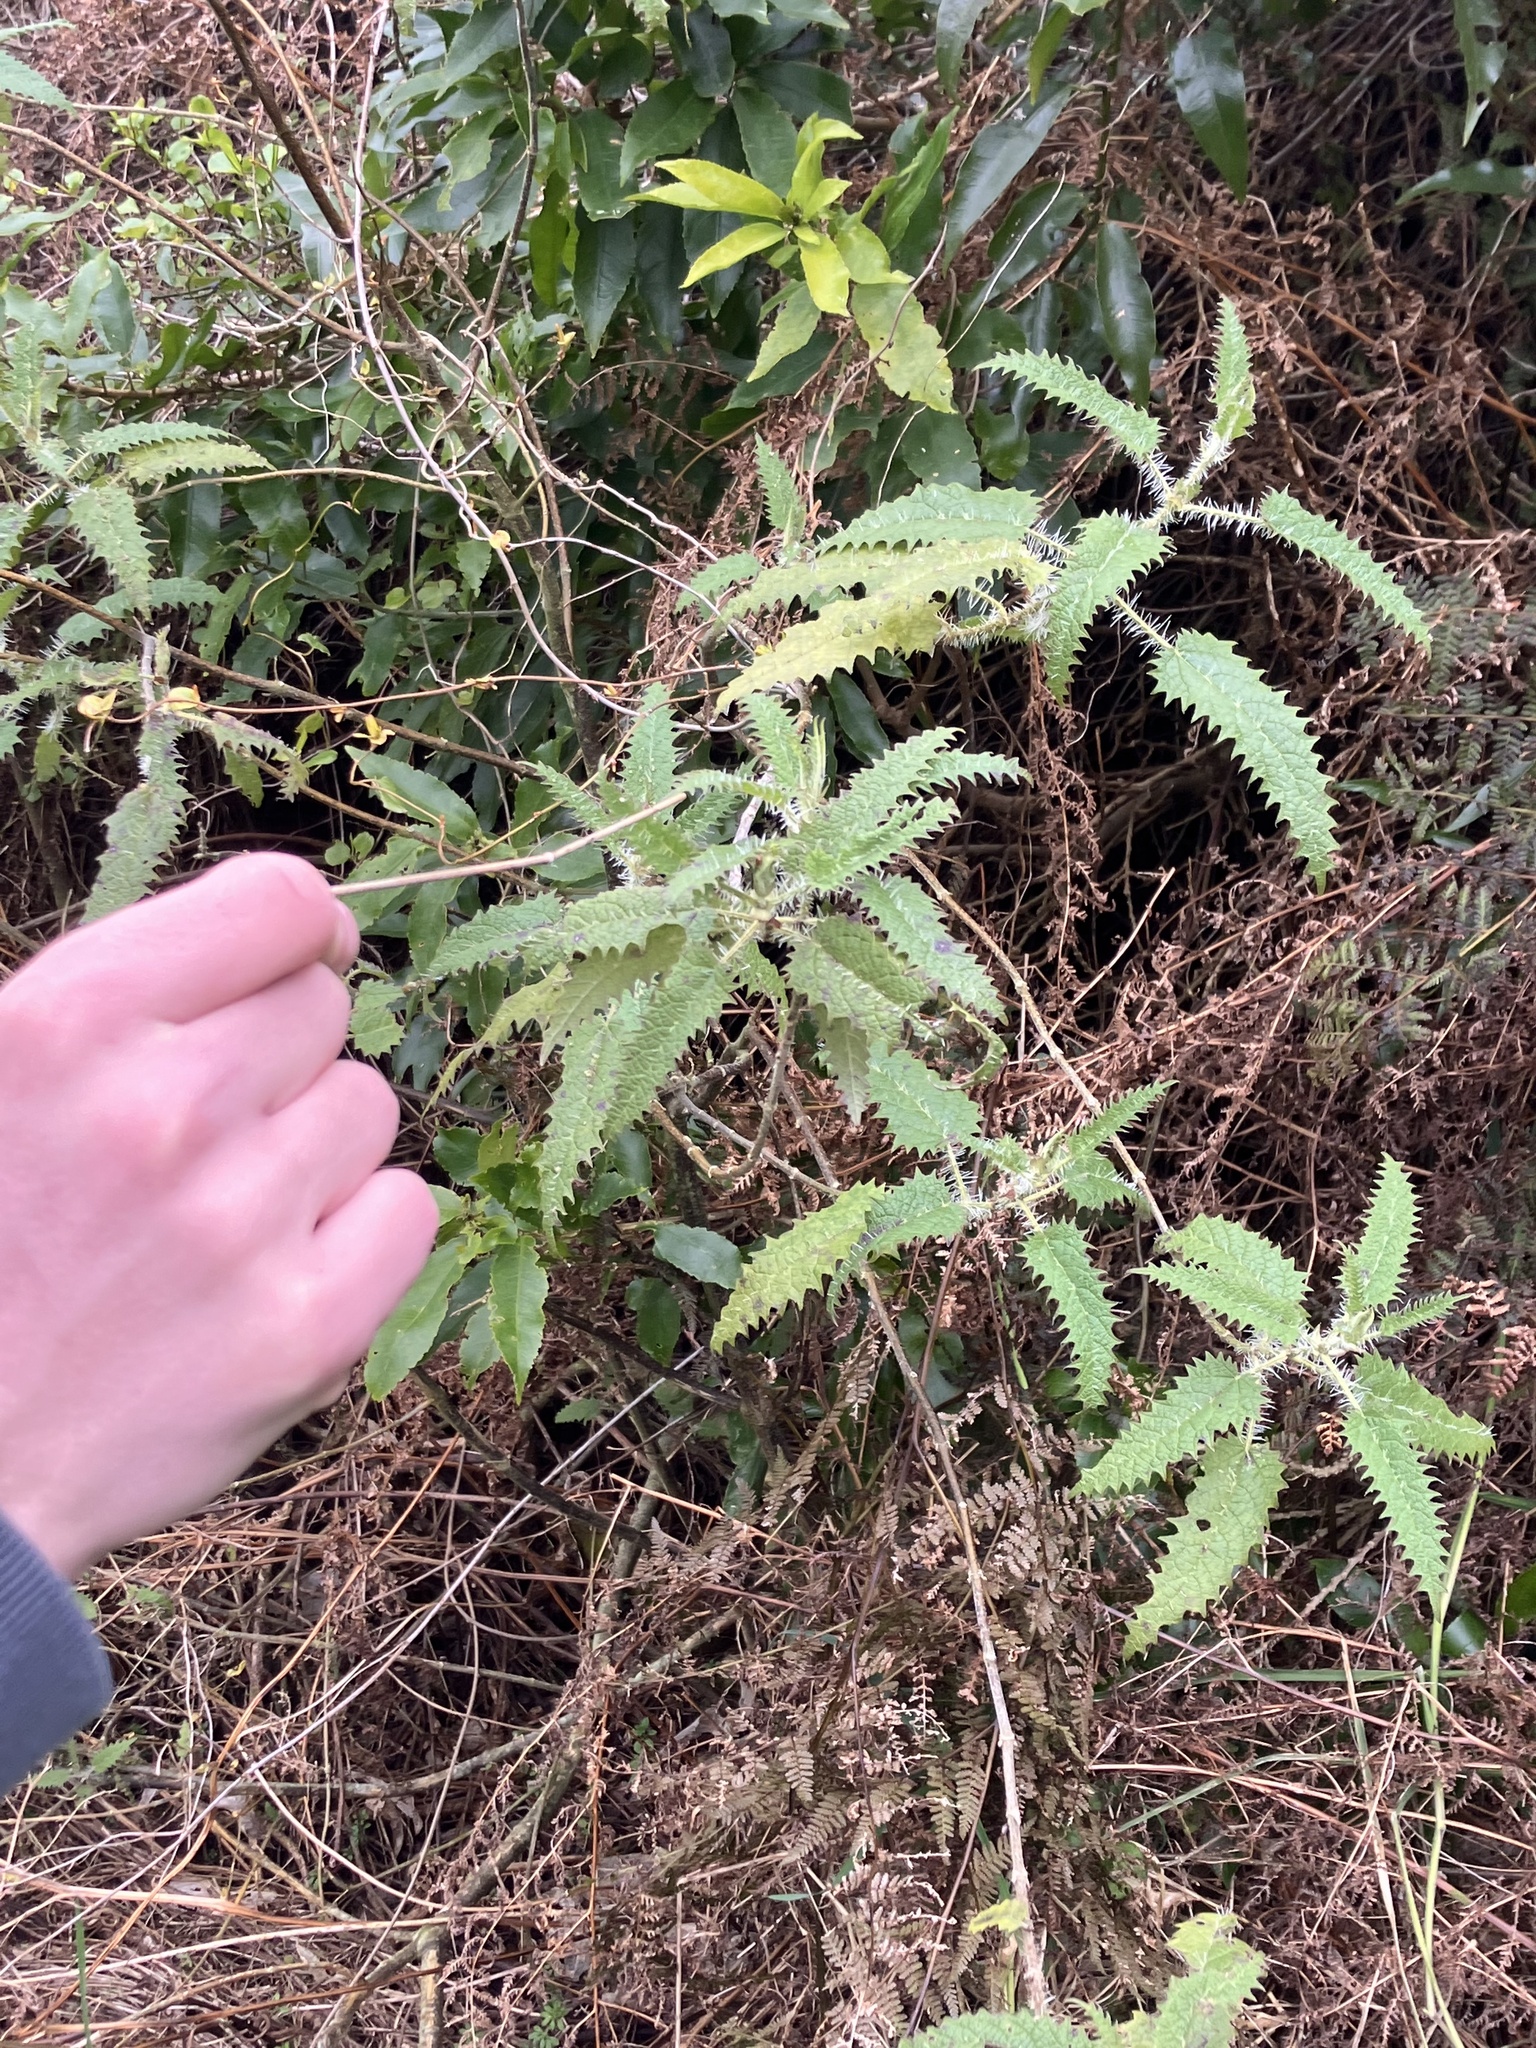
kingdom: Plantae
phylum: Tracheophyta
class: Magnoliopsida
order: Rosales
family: Urticaceae
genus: Urtica
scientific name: Urtica ferox
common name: Tree nettle
